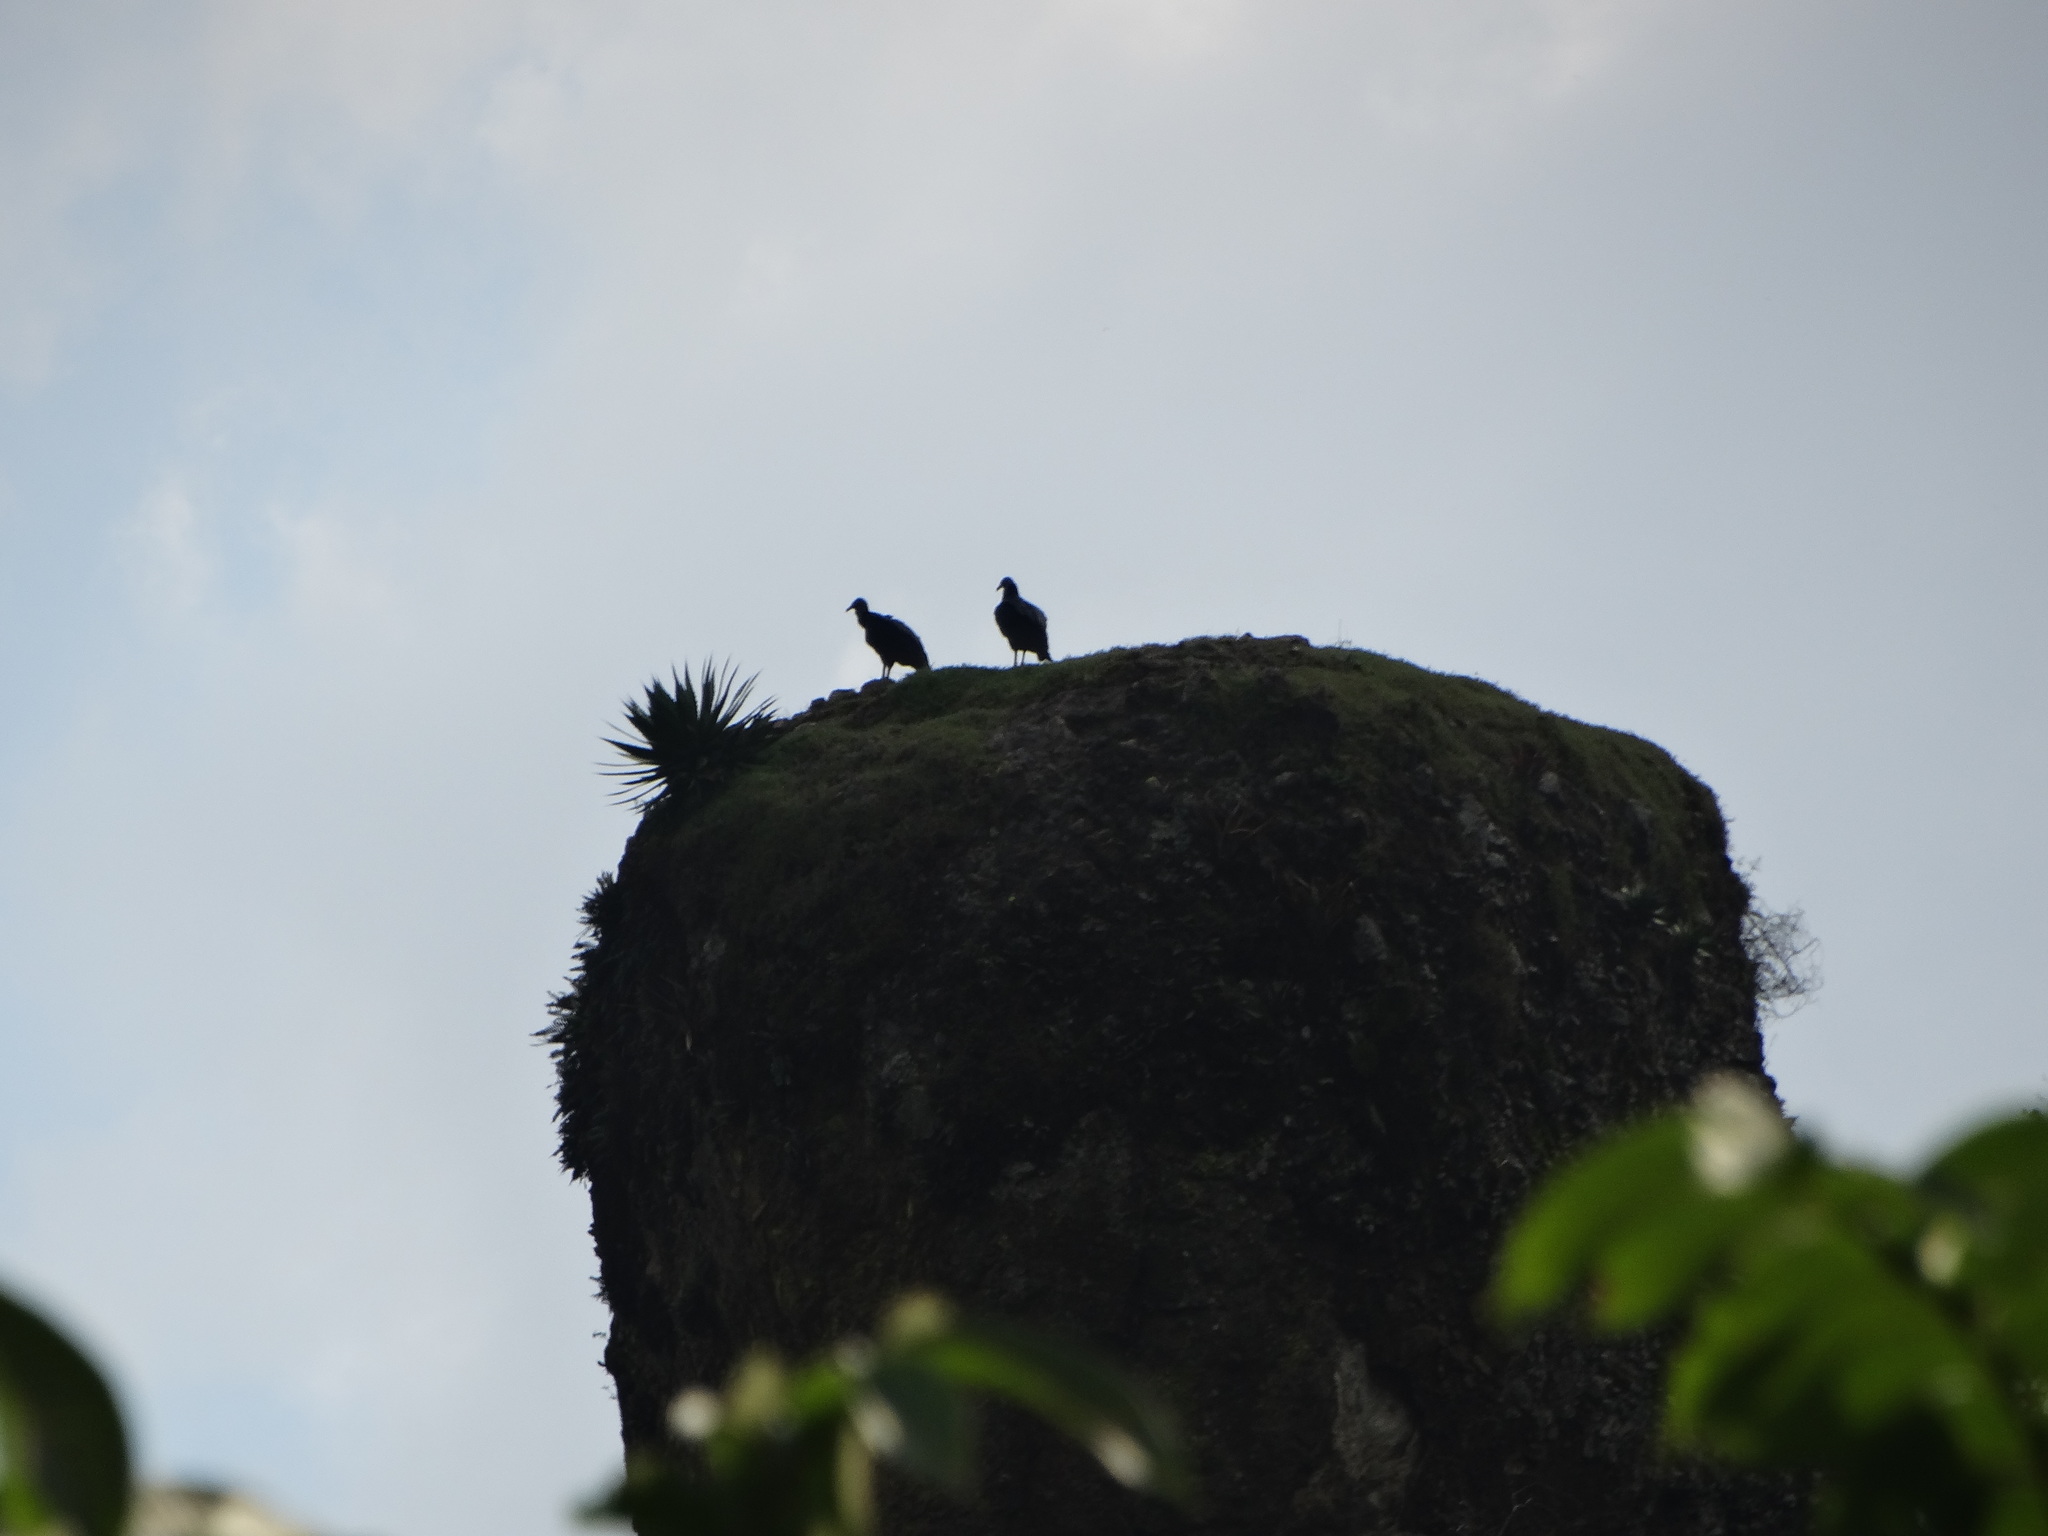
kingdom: Animalia
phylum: Chordata
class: Aves
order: Accipitriformes
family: Cathartidae
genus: Coragyps
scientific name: Coragyps atratus
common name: Black vulture
